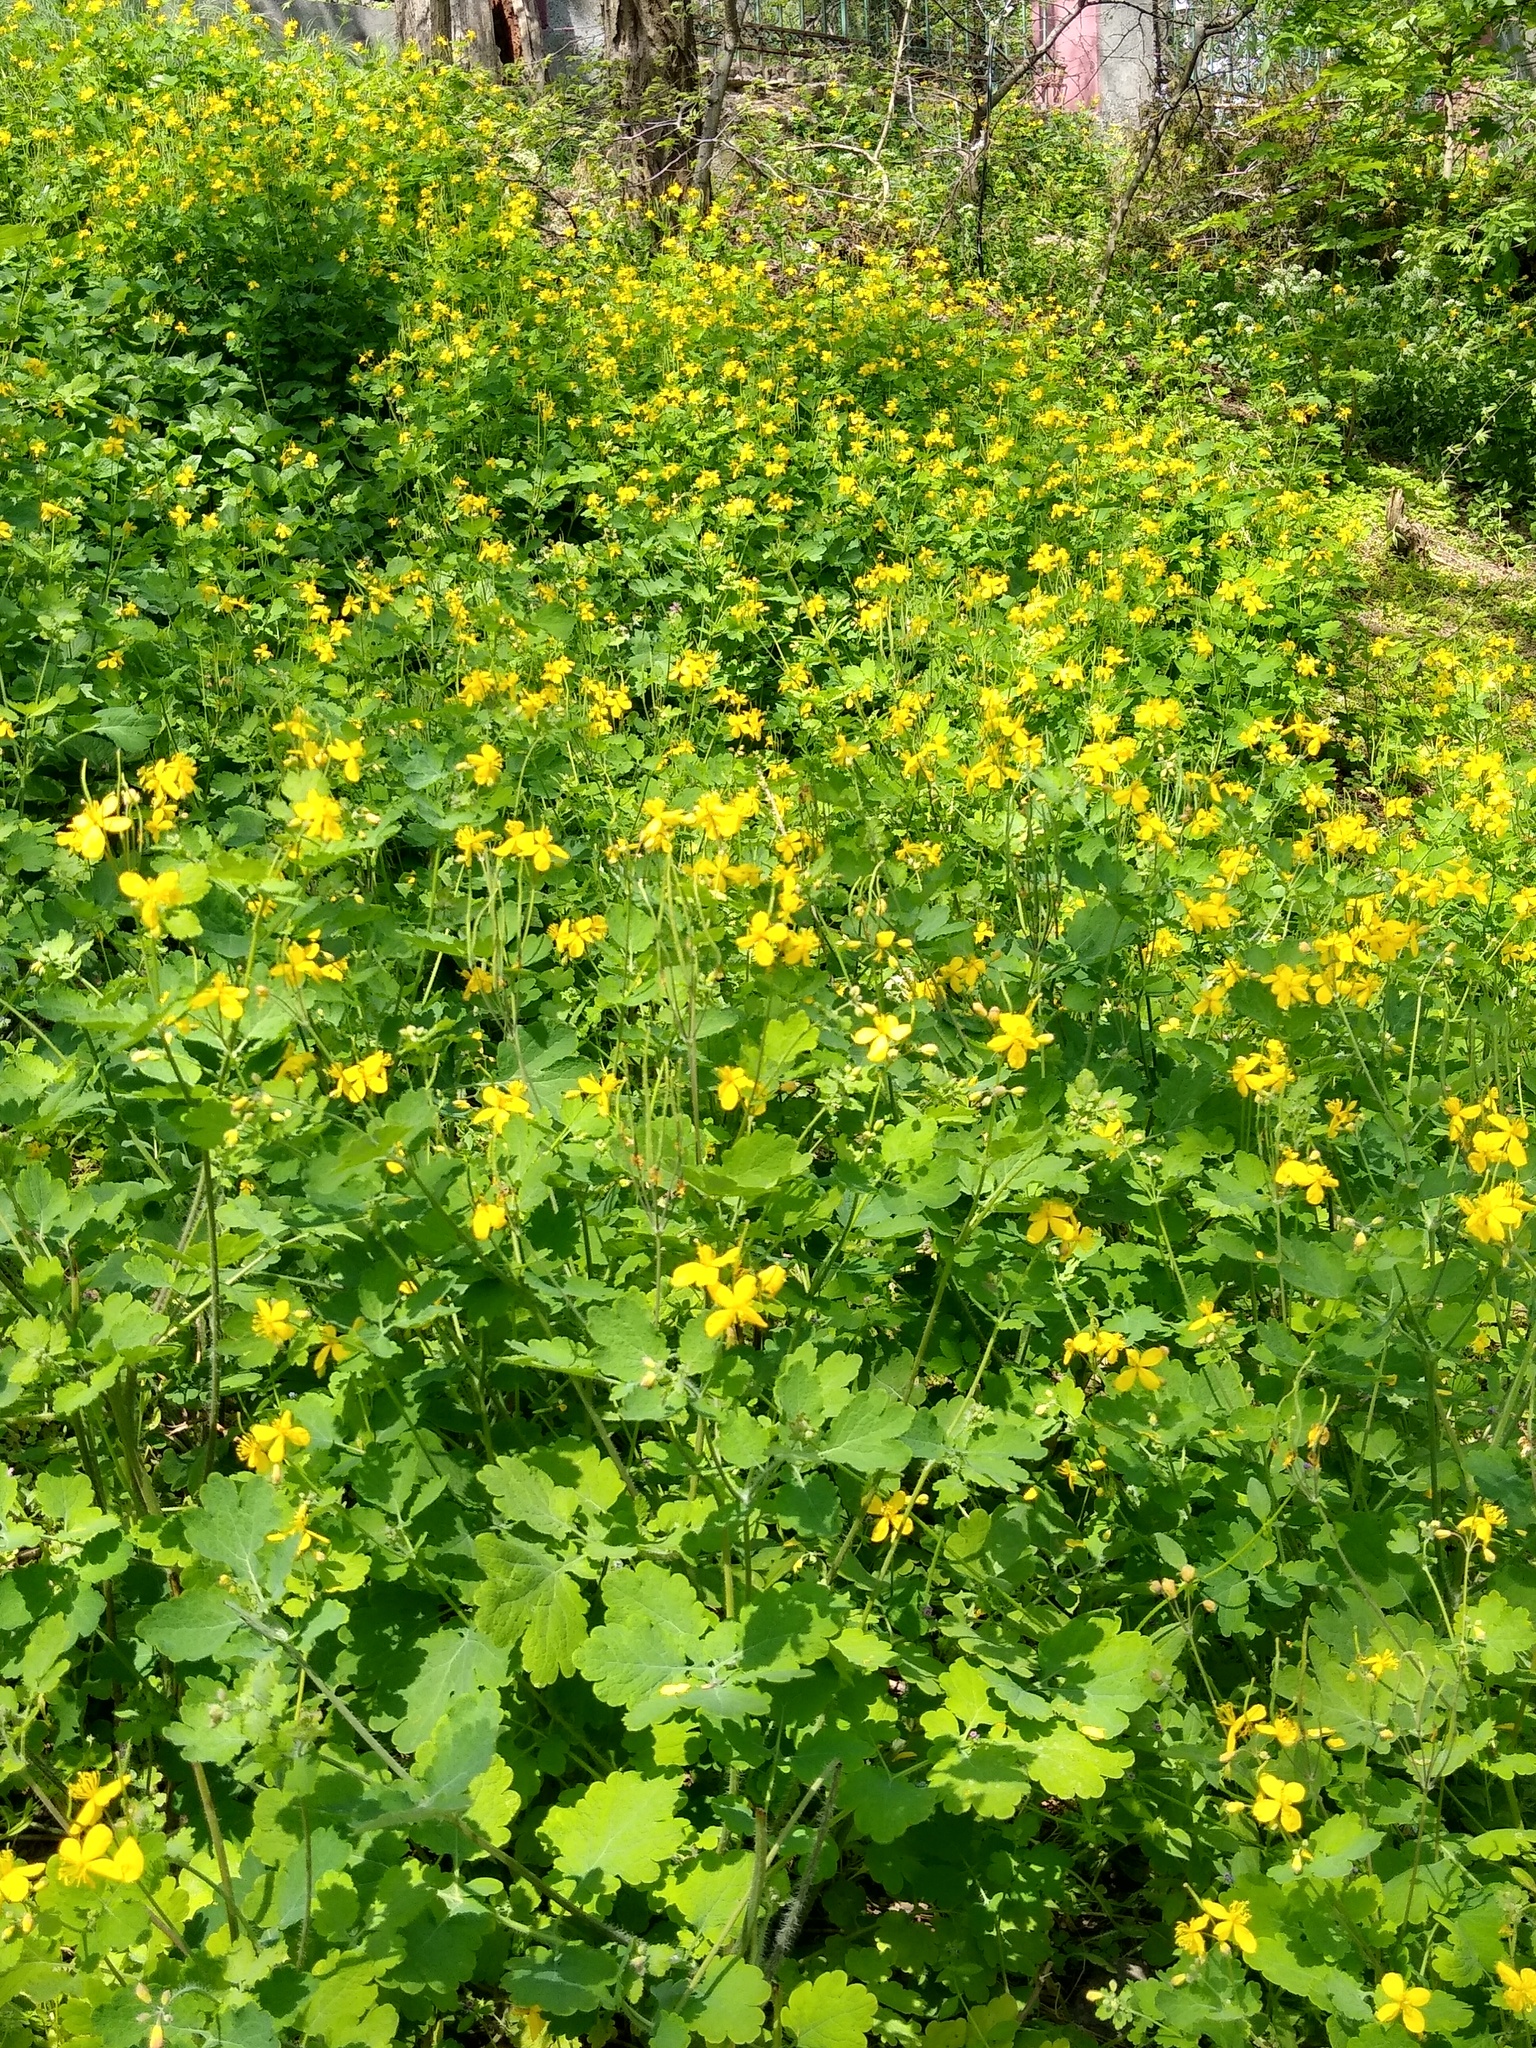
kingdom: Plantae
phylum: Tracheophyta
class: Magnoliopsida
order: Ranunculales
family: Papaveraceae
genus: Chelidonium
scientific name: Chelidonium majus
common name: Greater celandine
